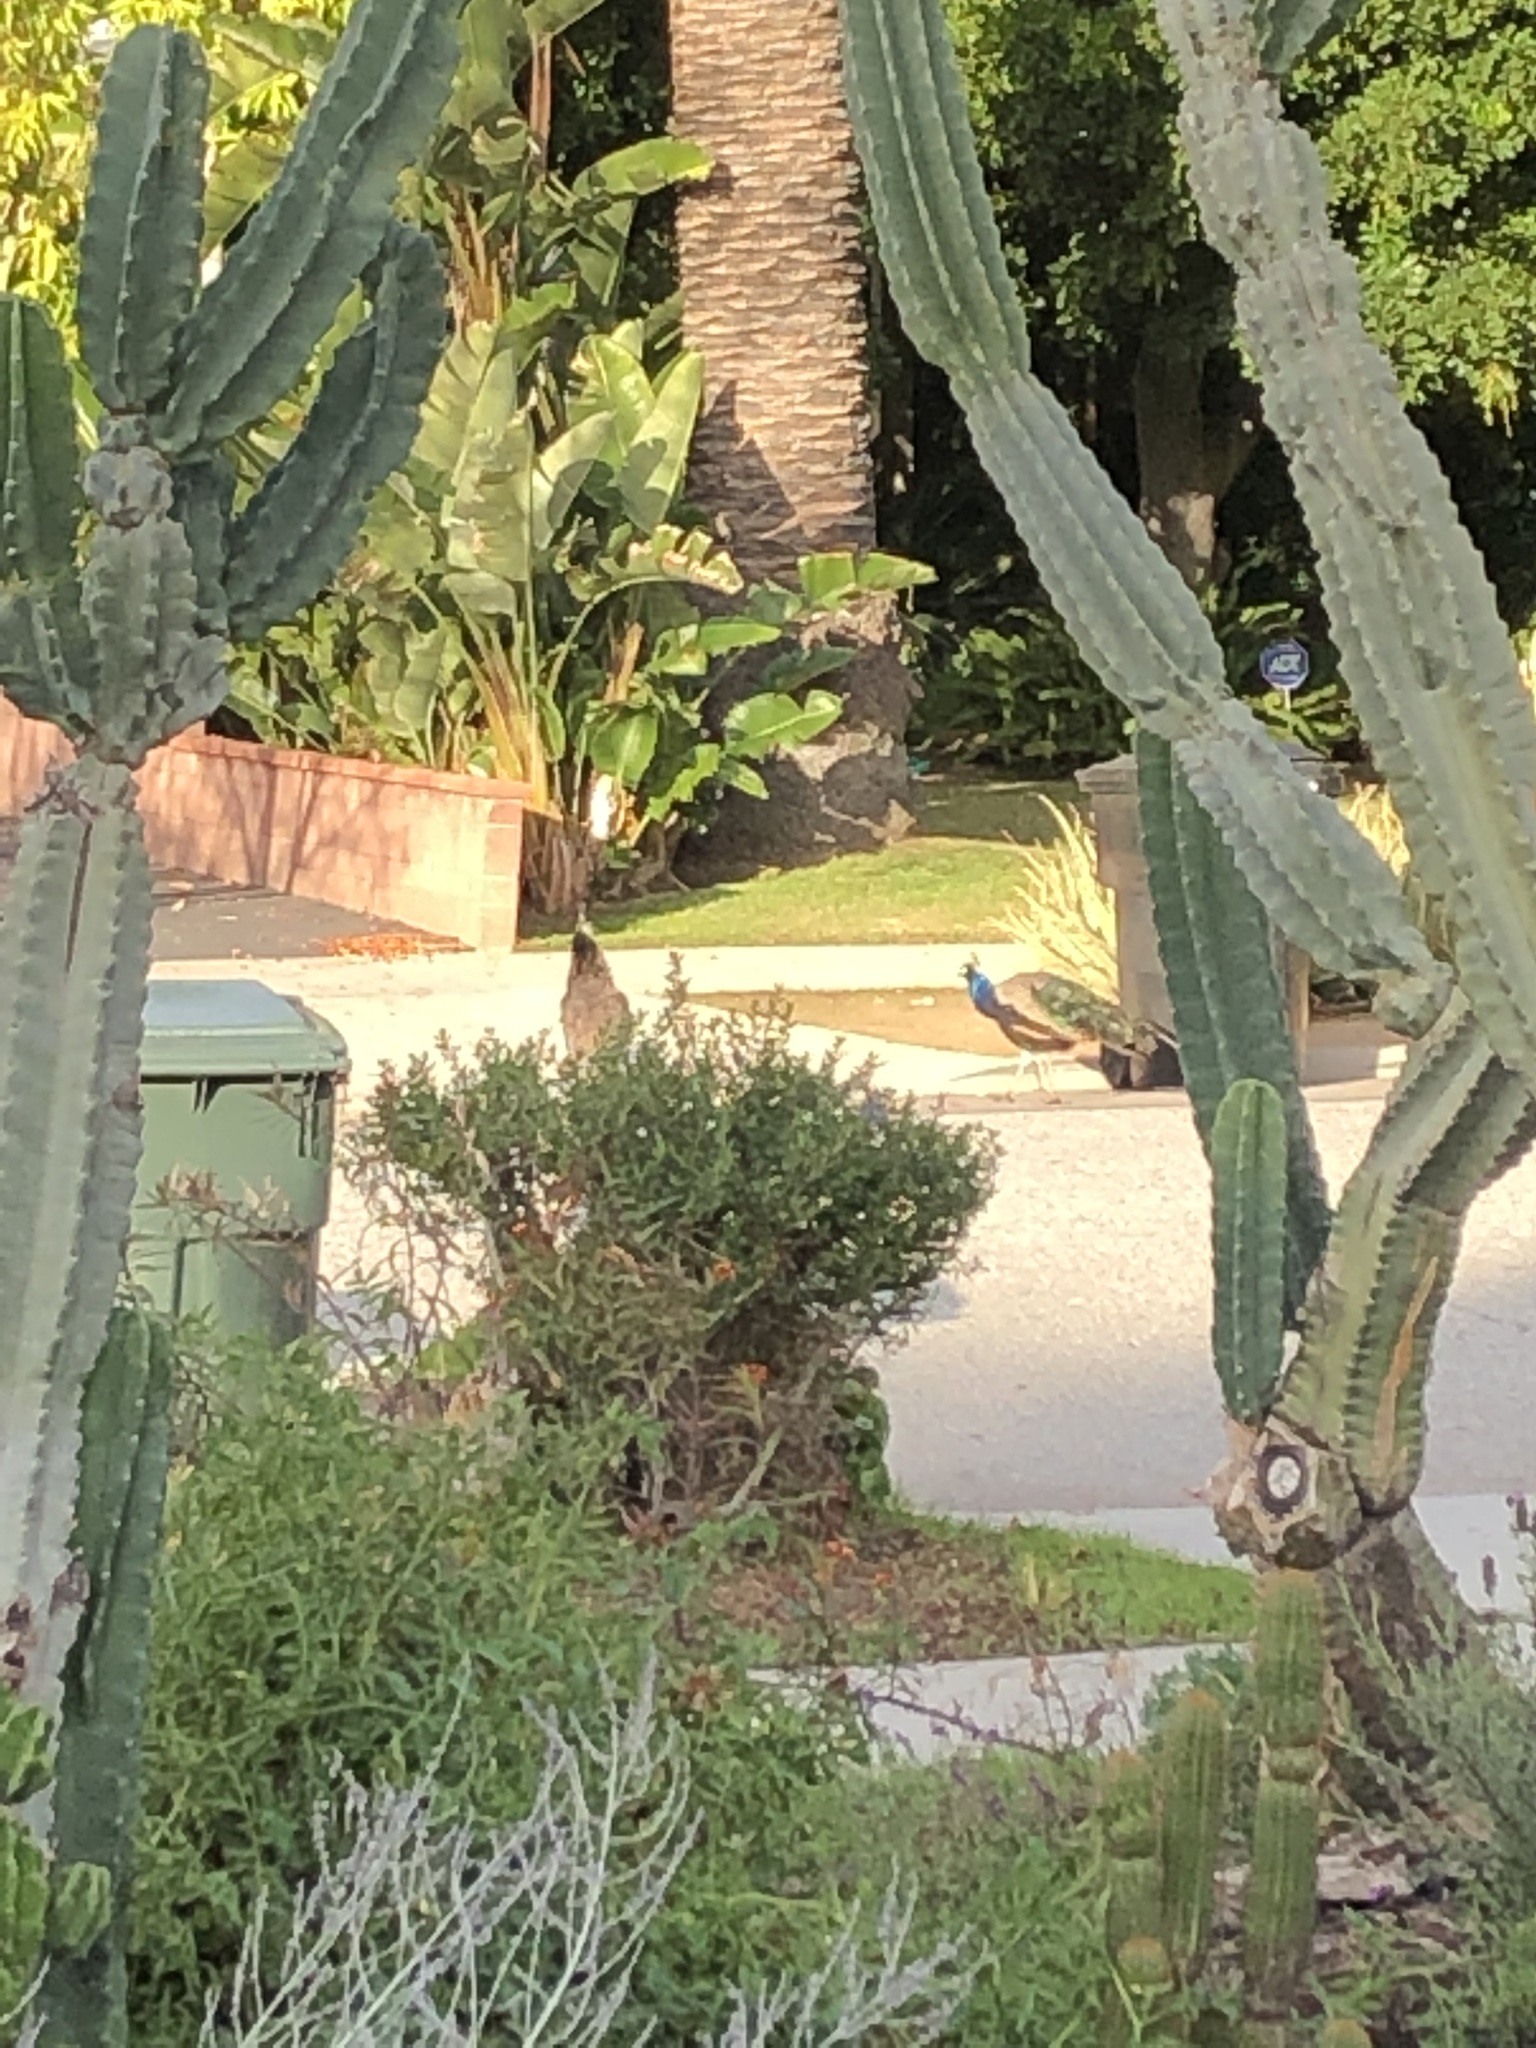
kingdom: Animalia
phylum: Chordata
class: Aves
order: Galliformes
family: Phasianidae
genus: Pavo
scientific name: Pavo cristatus
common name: Indian peafowl
